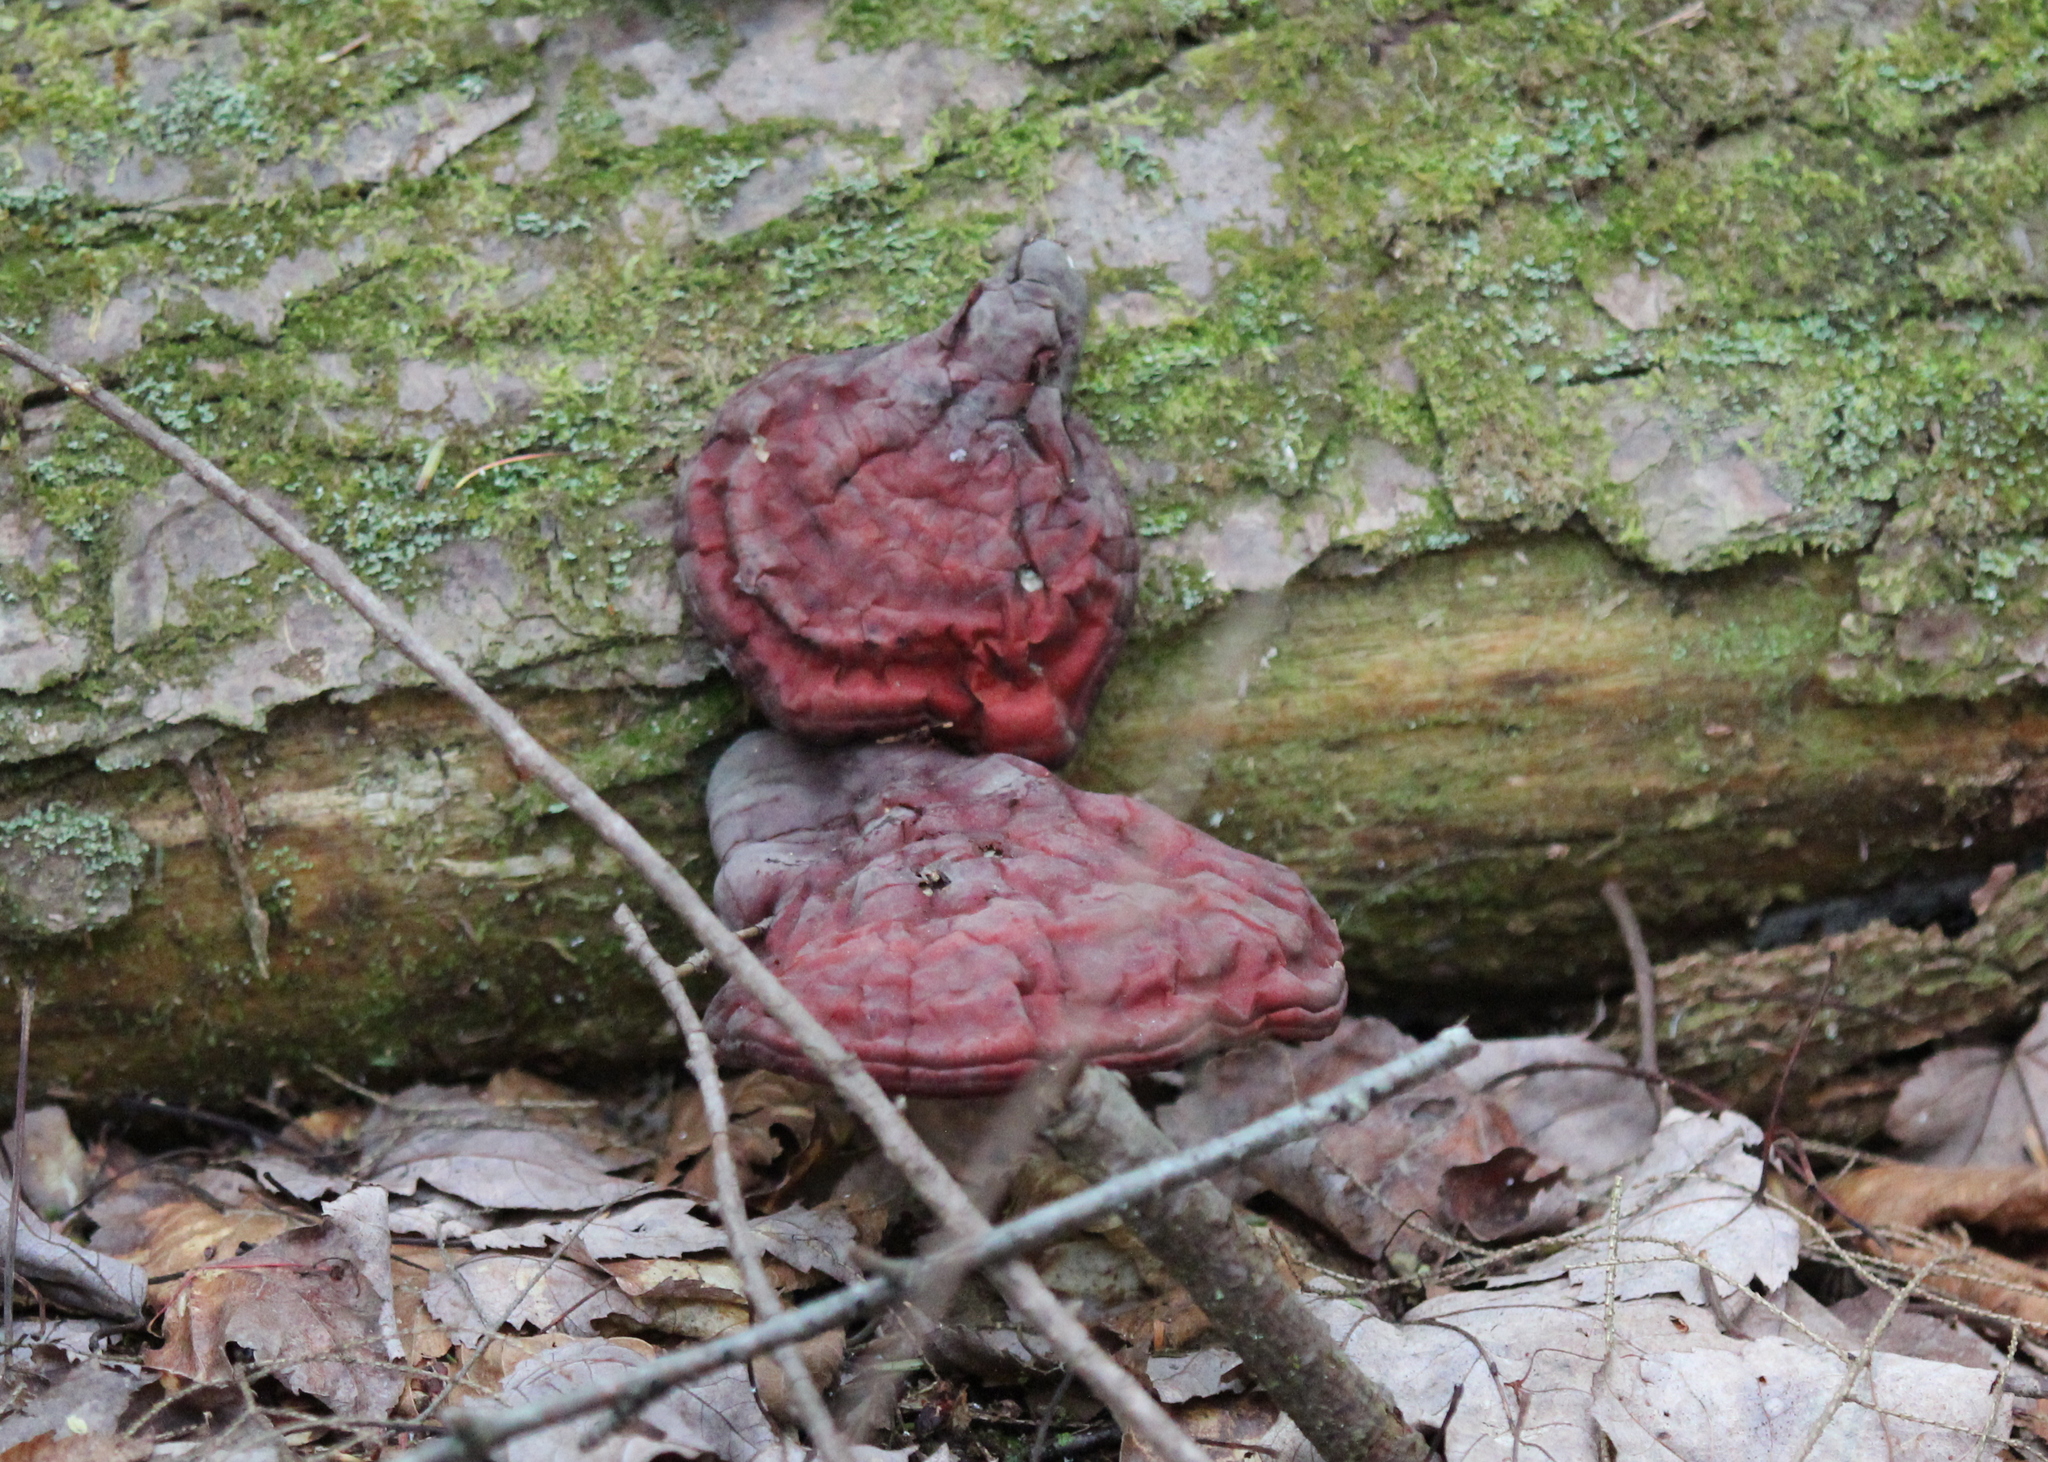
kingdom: Fungi
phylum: Basidiomycota
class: Agaricomycetes
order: Polyporales
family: Polyporaceae
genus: Ganoderma
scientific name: Ganoderma tsugae
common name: Hemlock varnish shelf
